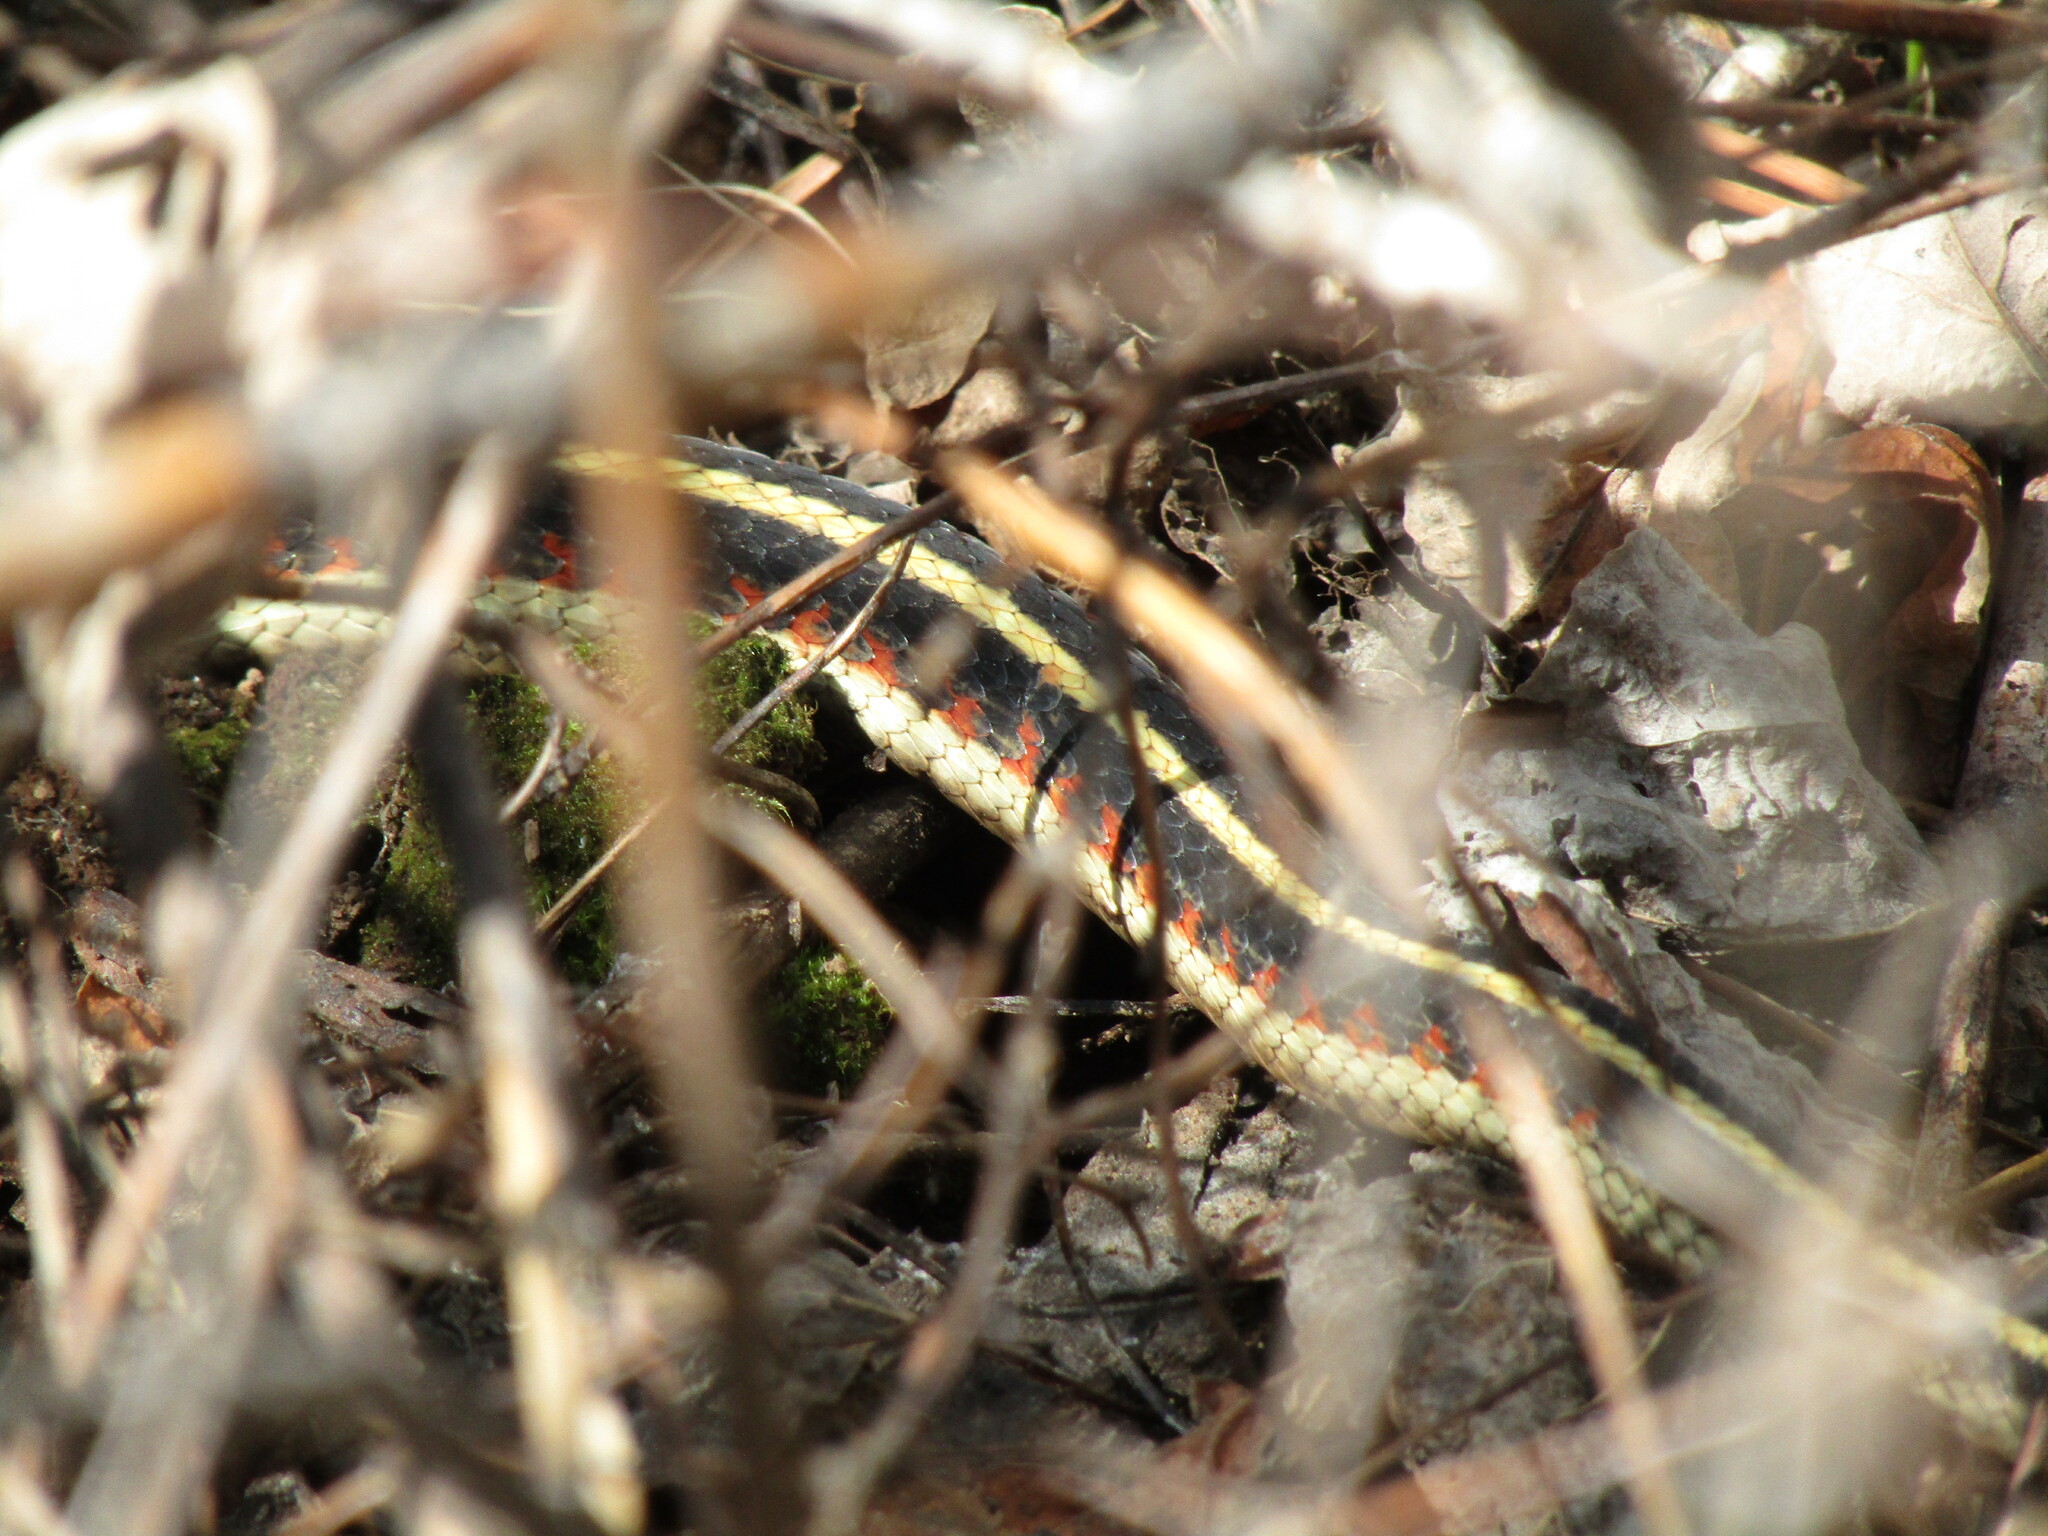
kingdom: Animalia
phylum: Chordata
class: Squamata
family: Colubridae
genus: Thamnophis
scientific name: Thamnophis sirtalis
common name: Common garter snake
